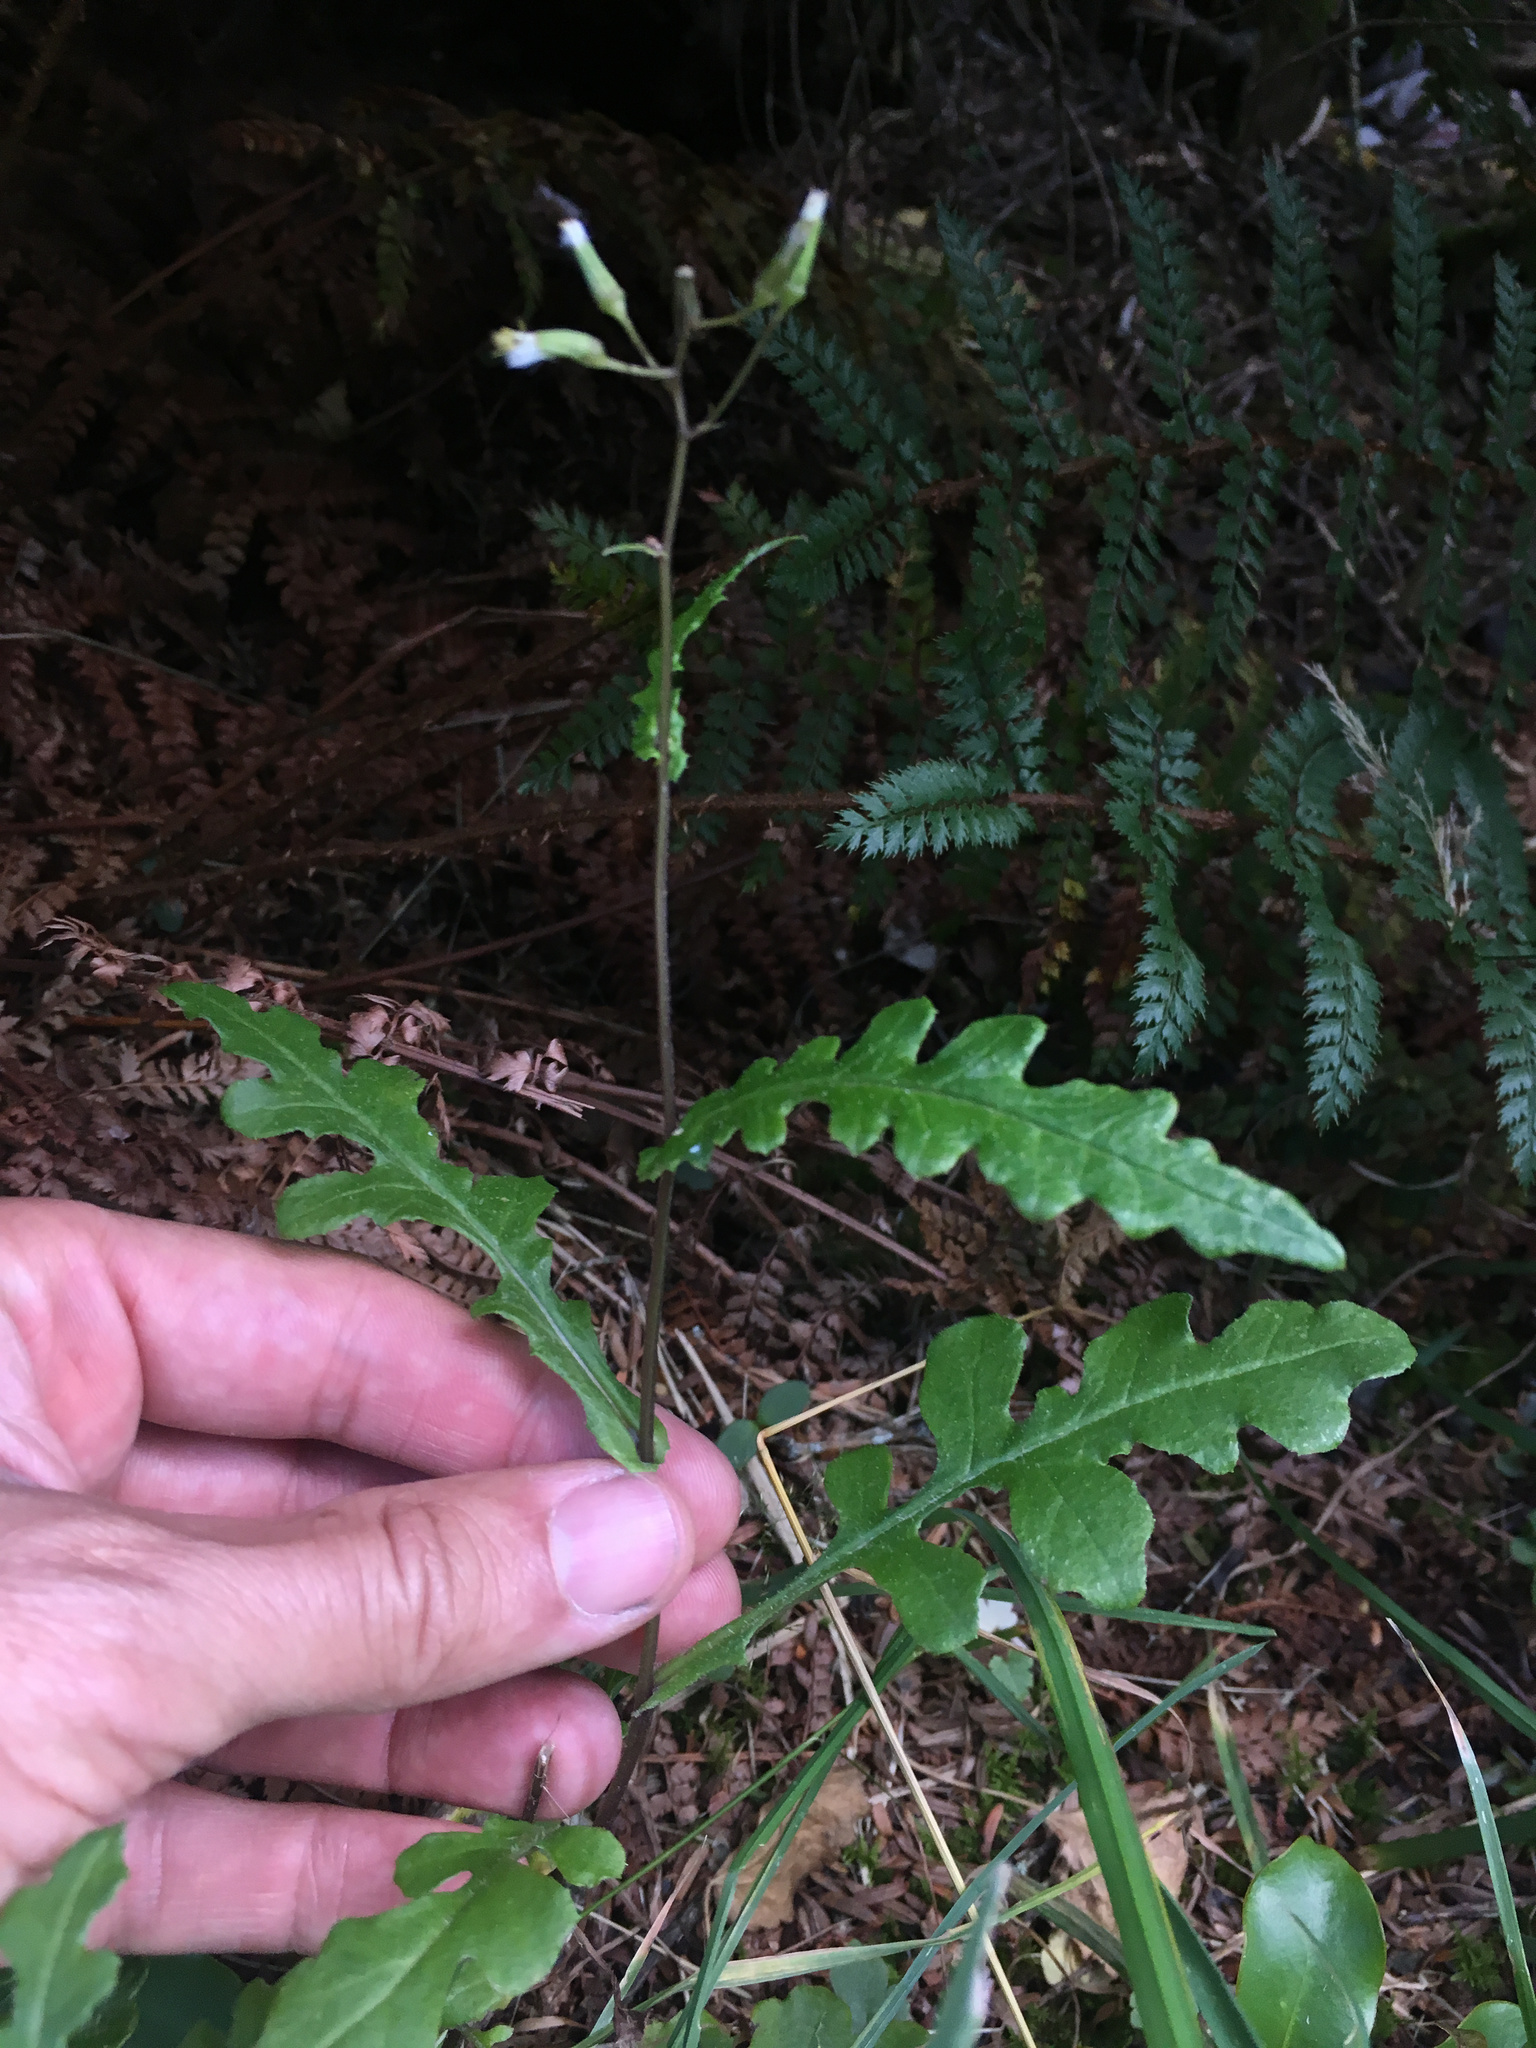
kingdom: Plantae
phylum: Tracheophyta
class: Magnoliopsida
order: Asterales
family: Asteraceae
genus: Senecio
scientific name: Senecio wairauensis
